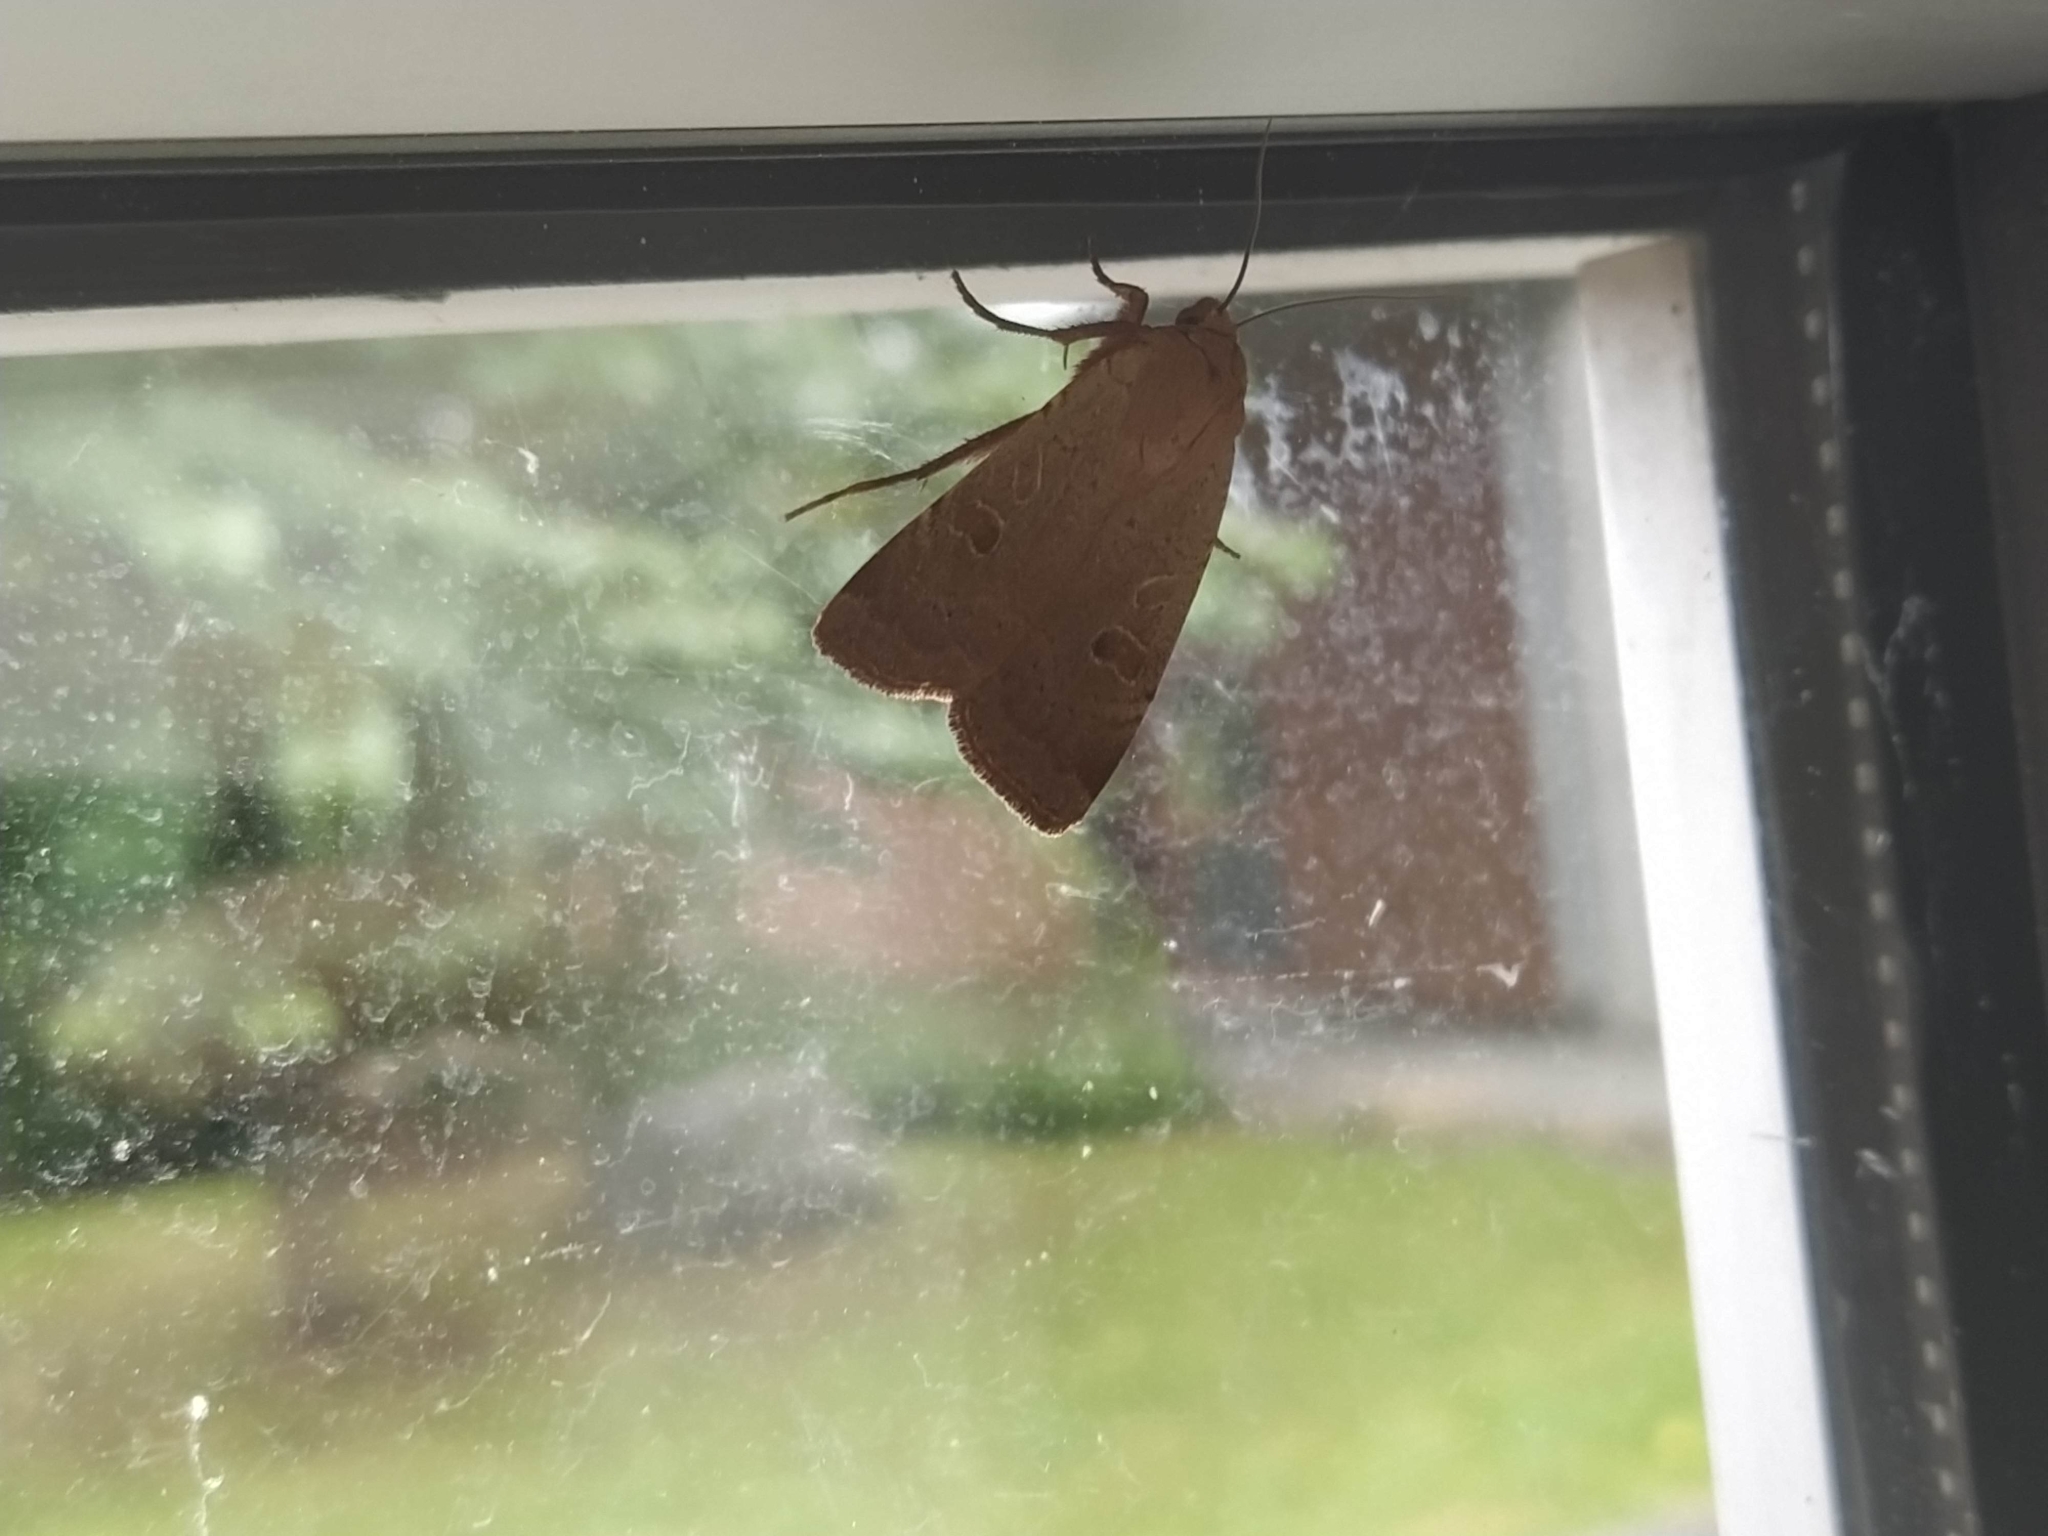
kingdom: Animalia
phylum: Arthropoda
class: Insecta
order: Lepidoptera
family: Noctuidae
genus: Noctua
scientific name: Noctua comes
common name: Lesser yellow underwing
